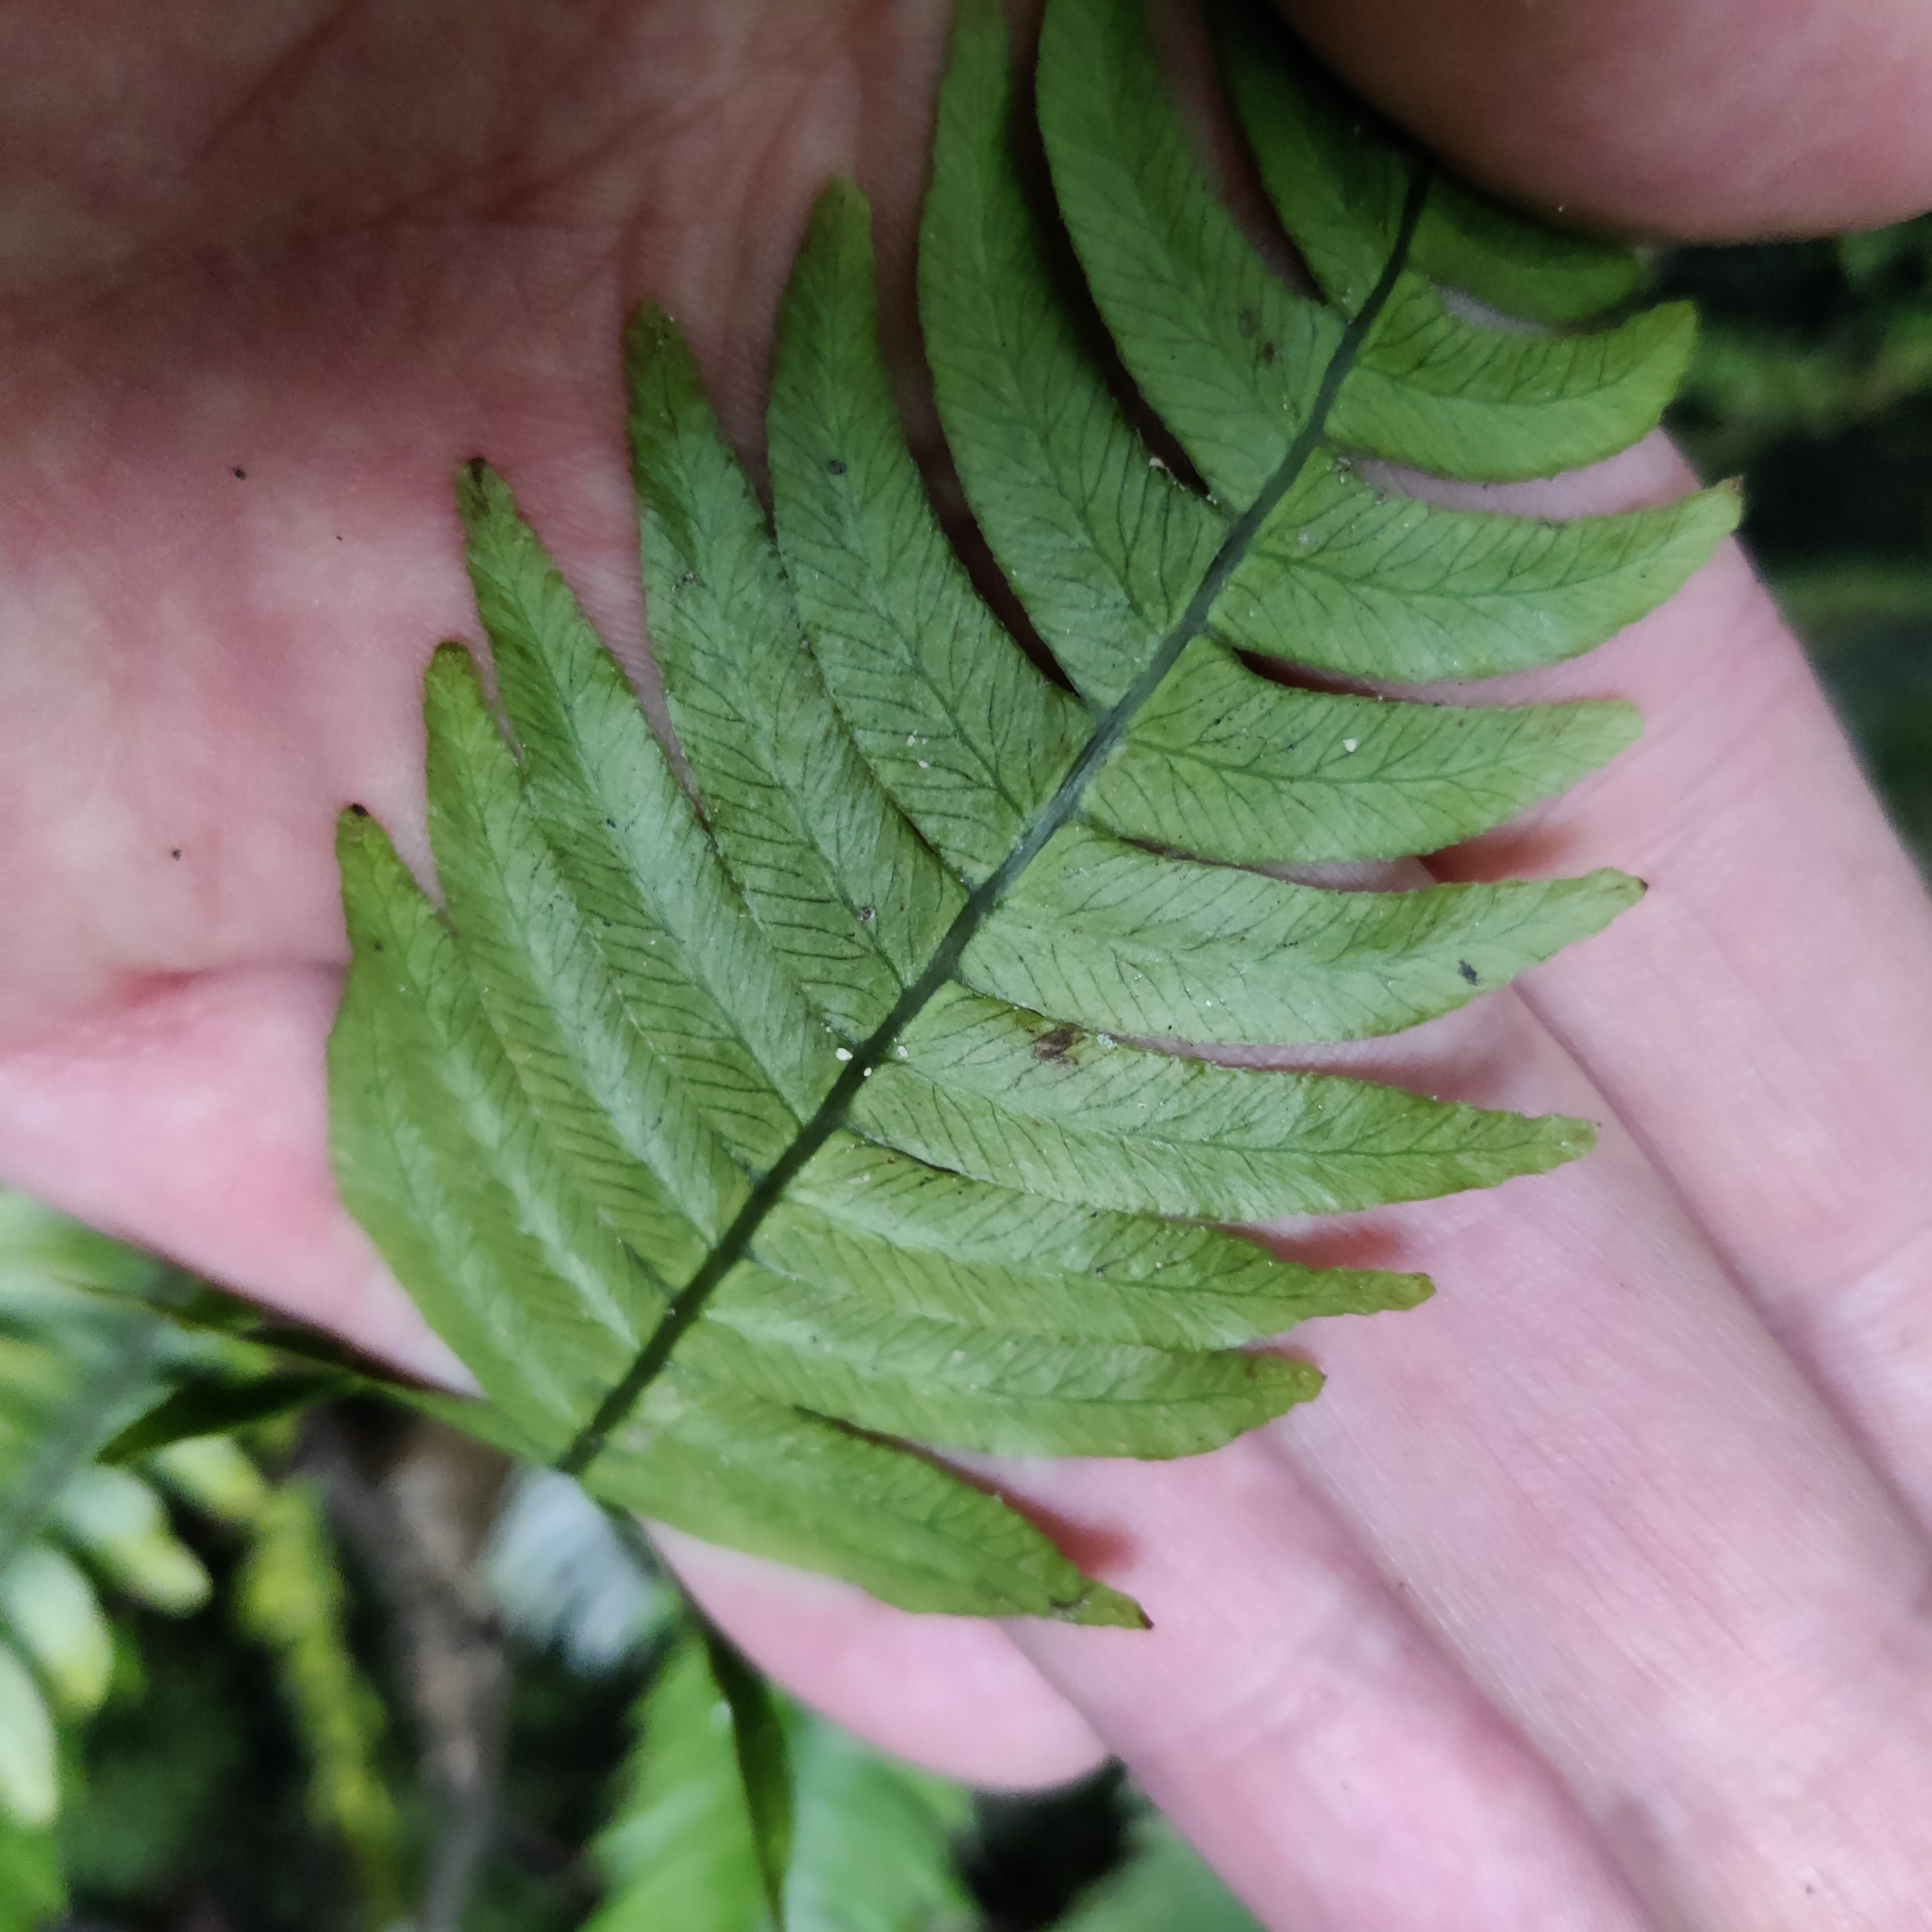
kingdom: Plantae
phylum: Tracheophyta
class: Polypodiopsida
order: Polypodiales
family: Blechnaceae
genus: Austroblechnum
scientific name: Austroblechnum lanceolatum
